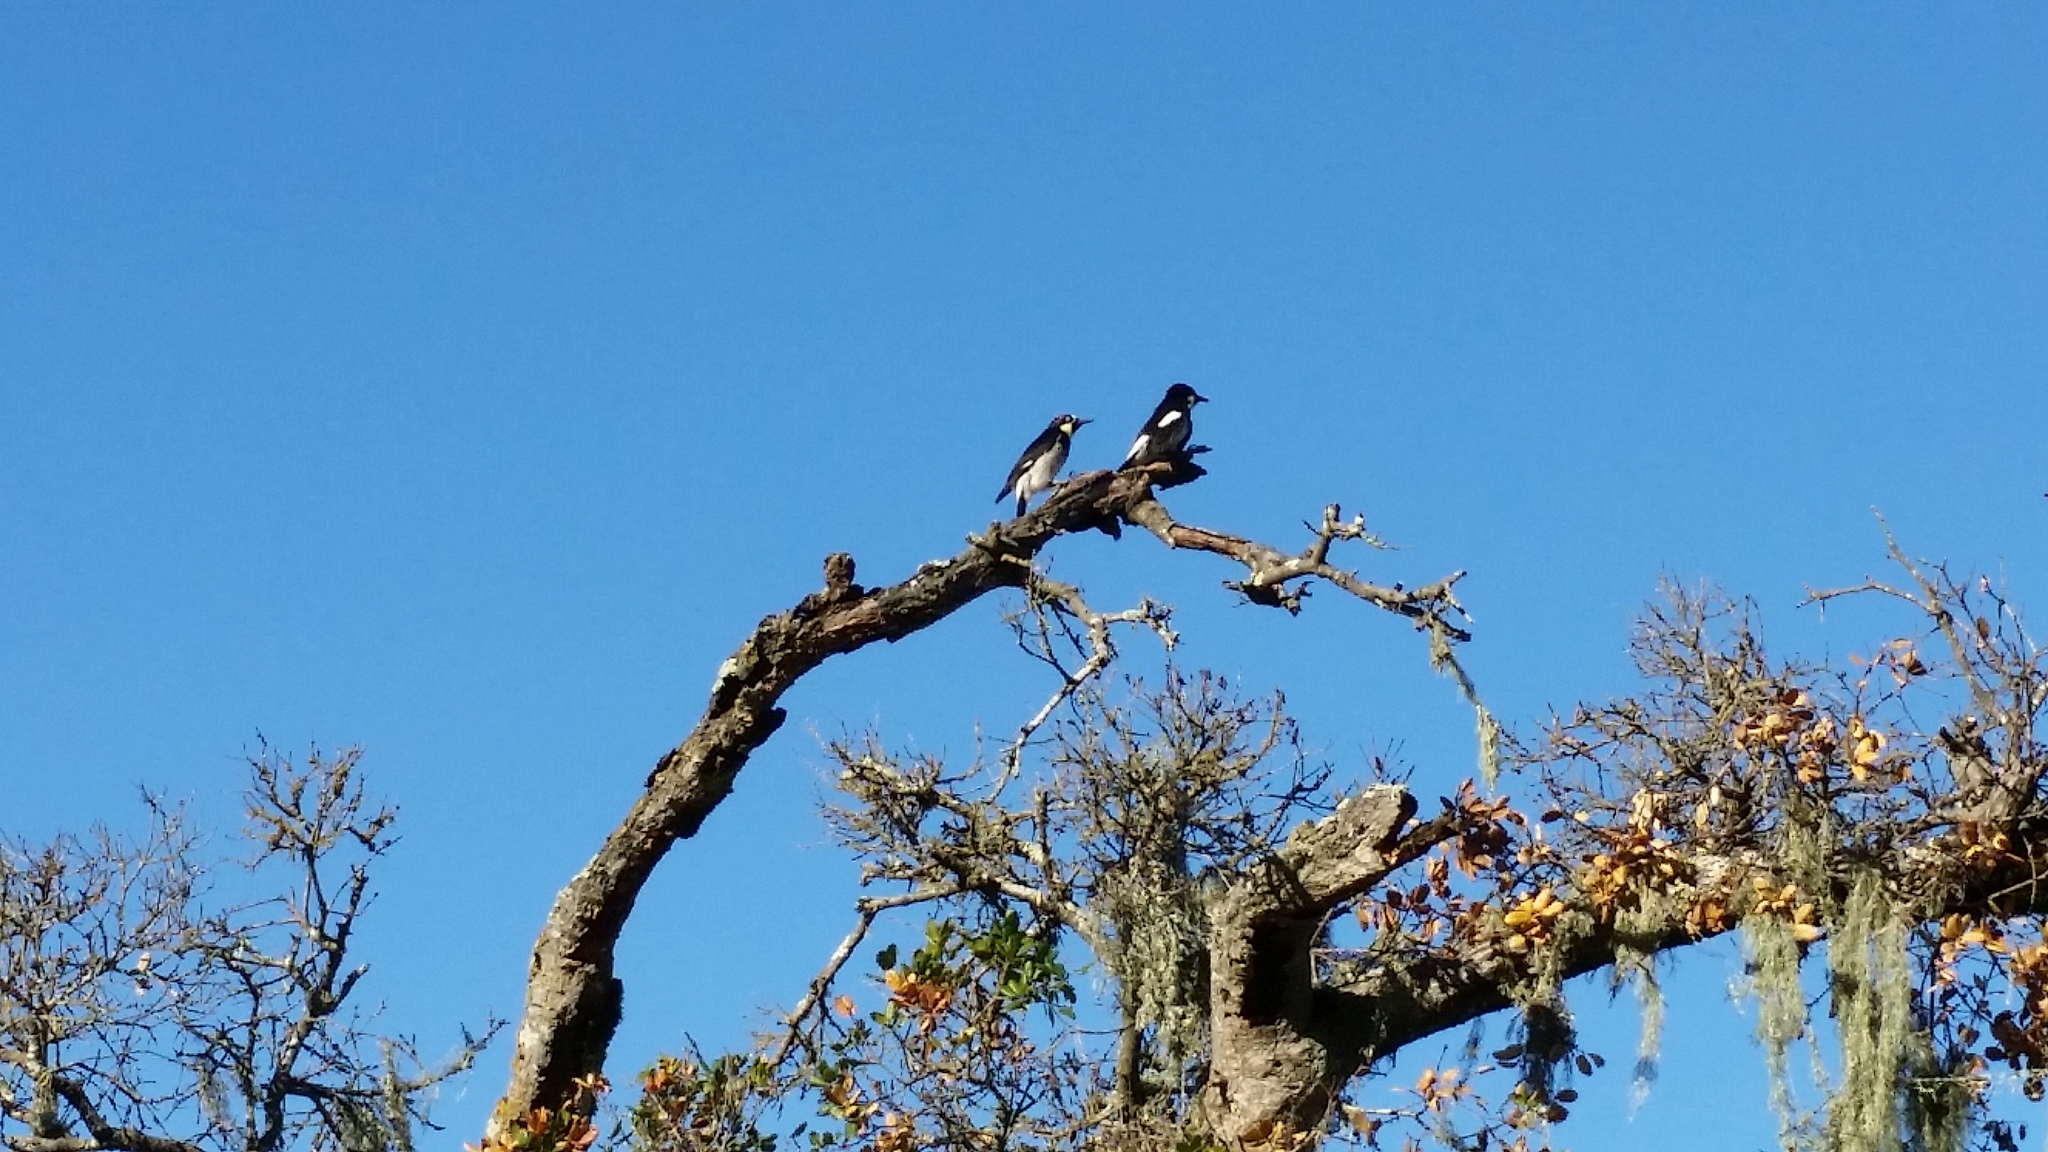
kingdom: Animalia
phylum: Chordata
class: Aves
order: Piciformes
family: Picidae
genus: Melanerpes
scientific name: Melanerpes formicivorus
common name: Acorn woodpecker
